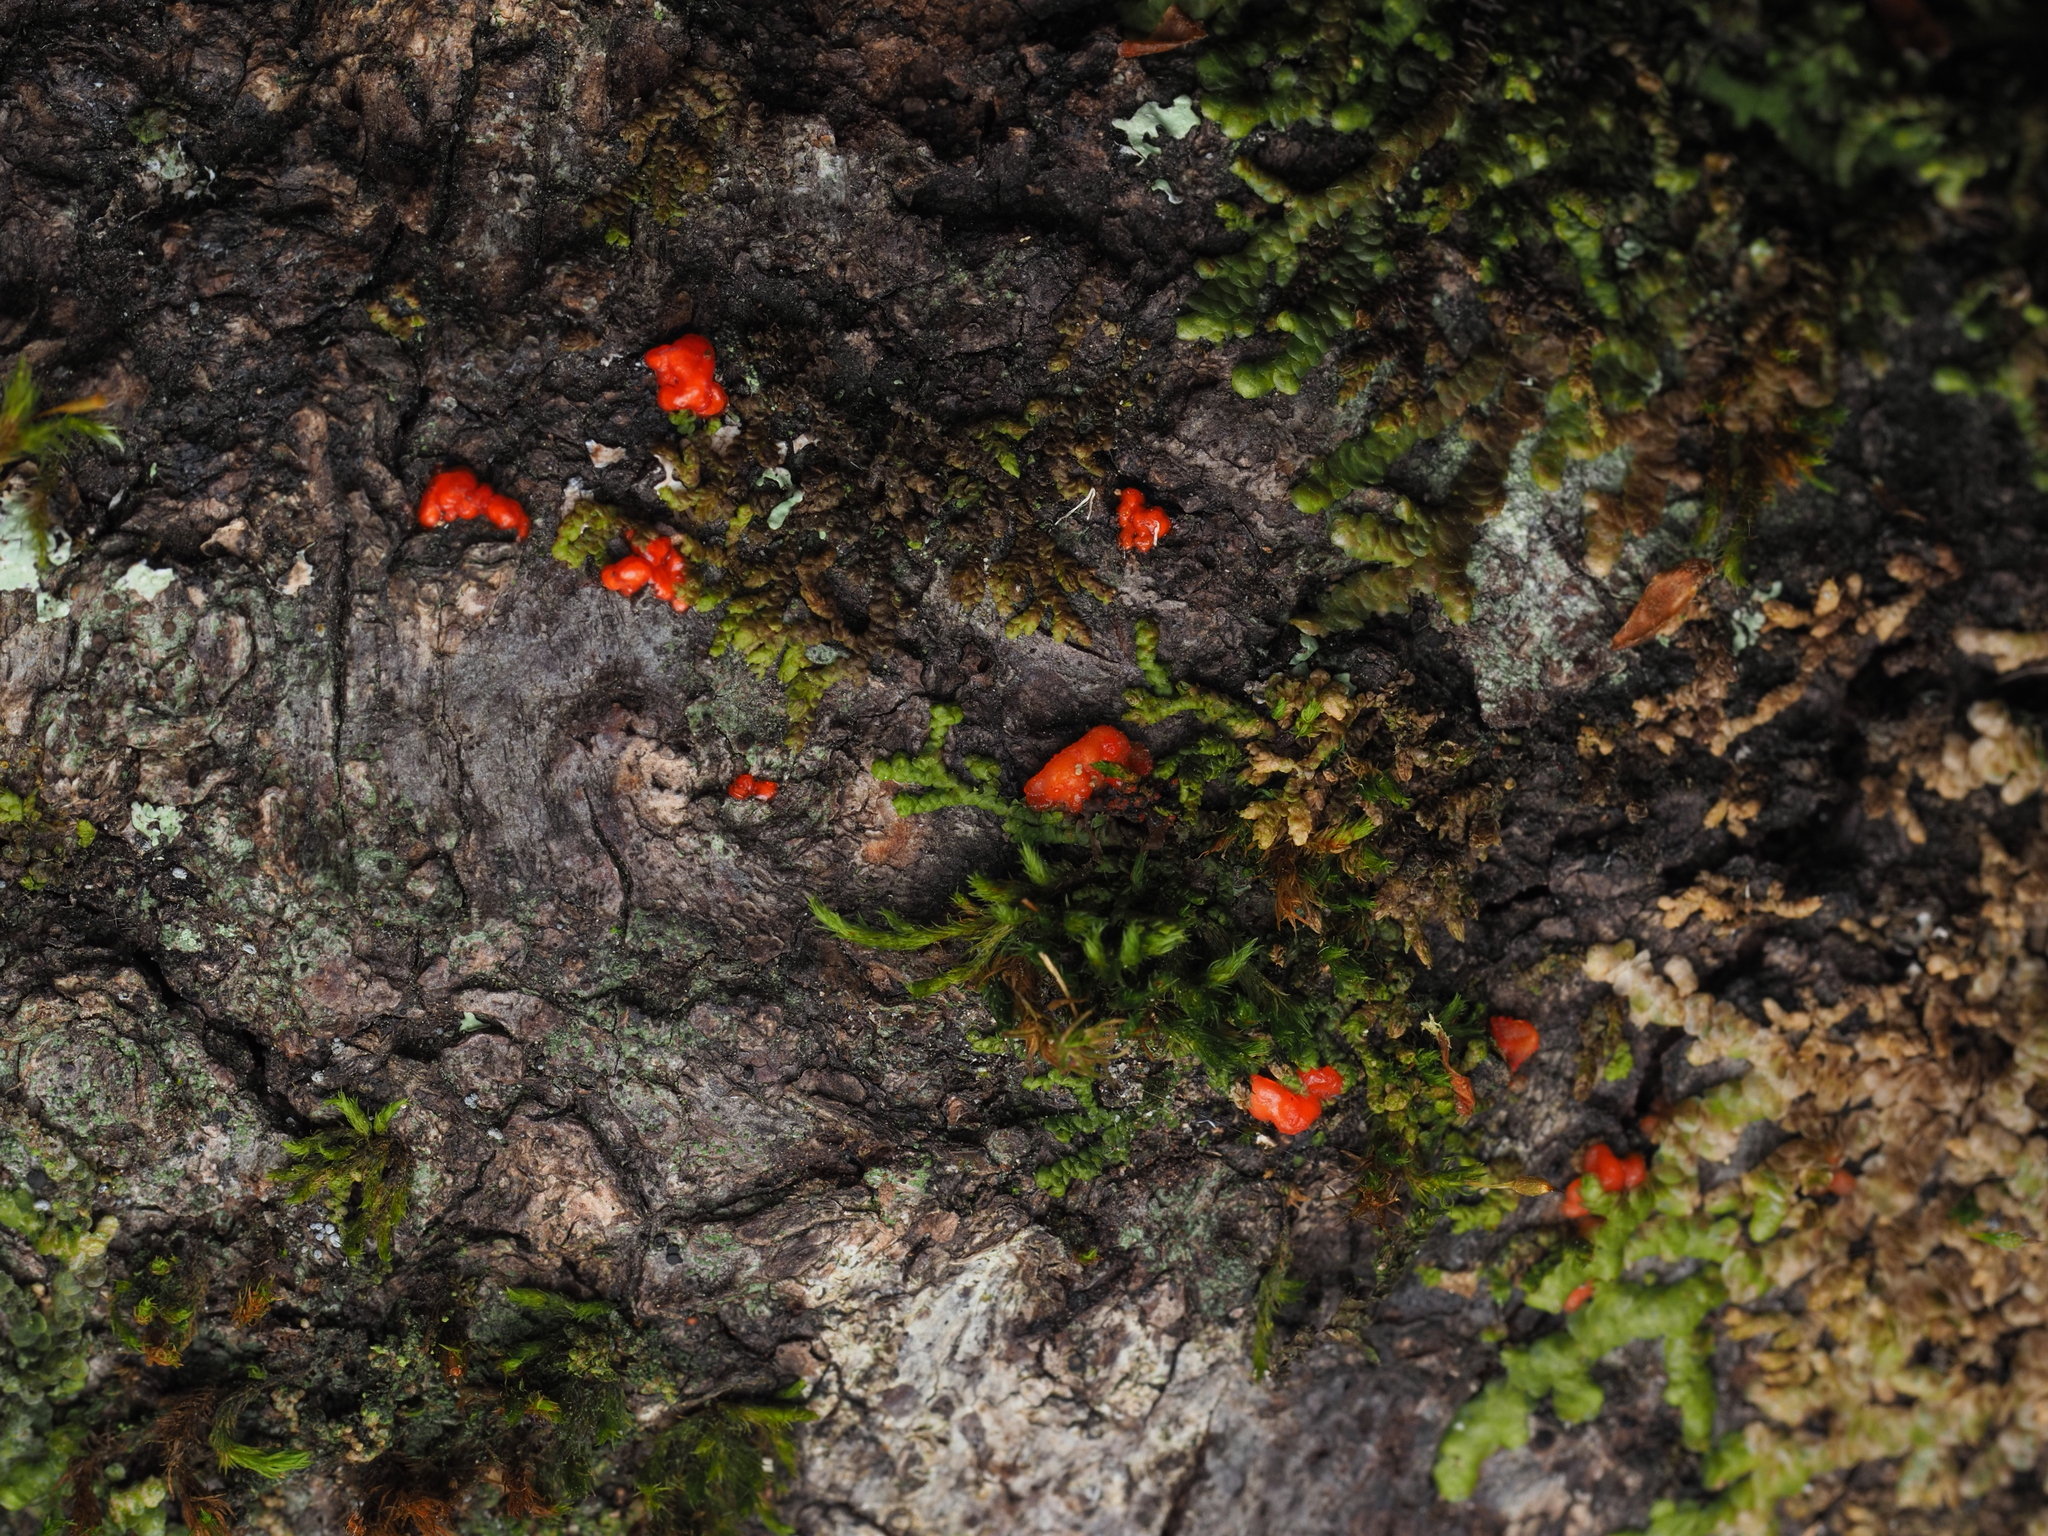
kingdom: Fungi
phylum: Basidiomycota
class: Agaricostilbomycetes
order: Agaricostilbales
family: Chionosphaeraceae
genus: Mycogloea
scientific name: Mycogloea macrospora
